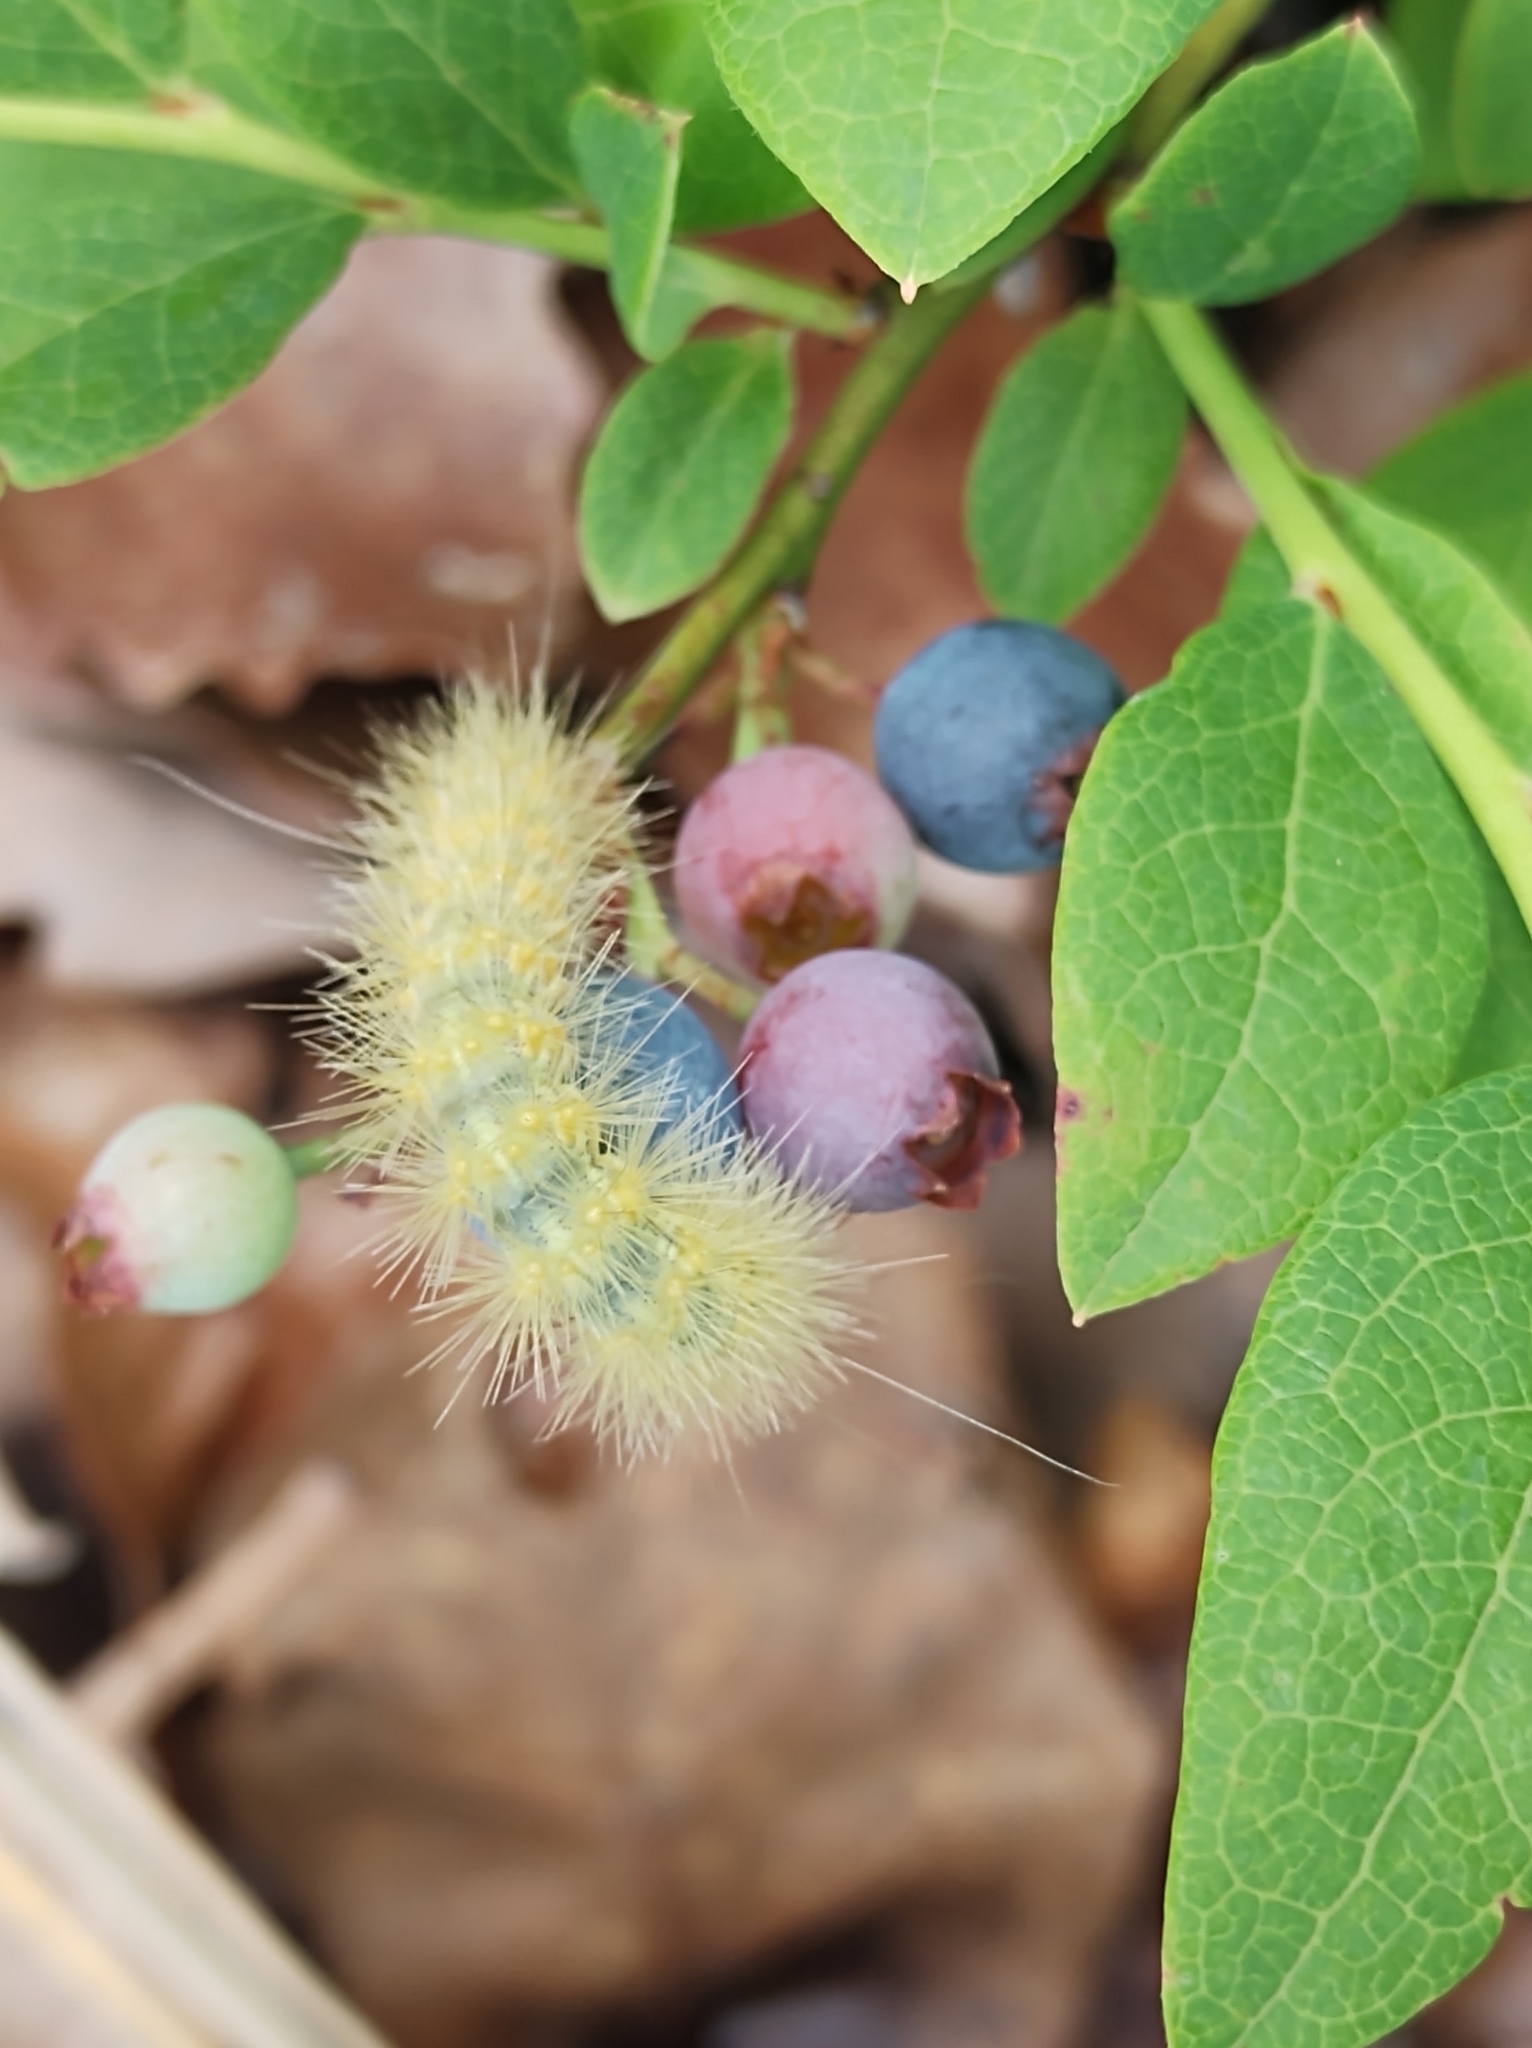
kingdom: Animalia
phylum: Arthropoda
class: Insecta
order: Lepidoptera
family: Erebidae
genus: Spilosoma
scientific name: Spilosoma virginica
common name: Virginia tiger moth
